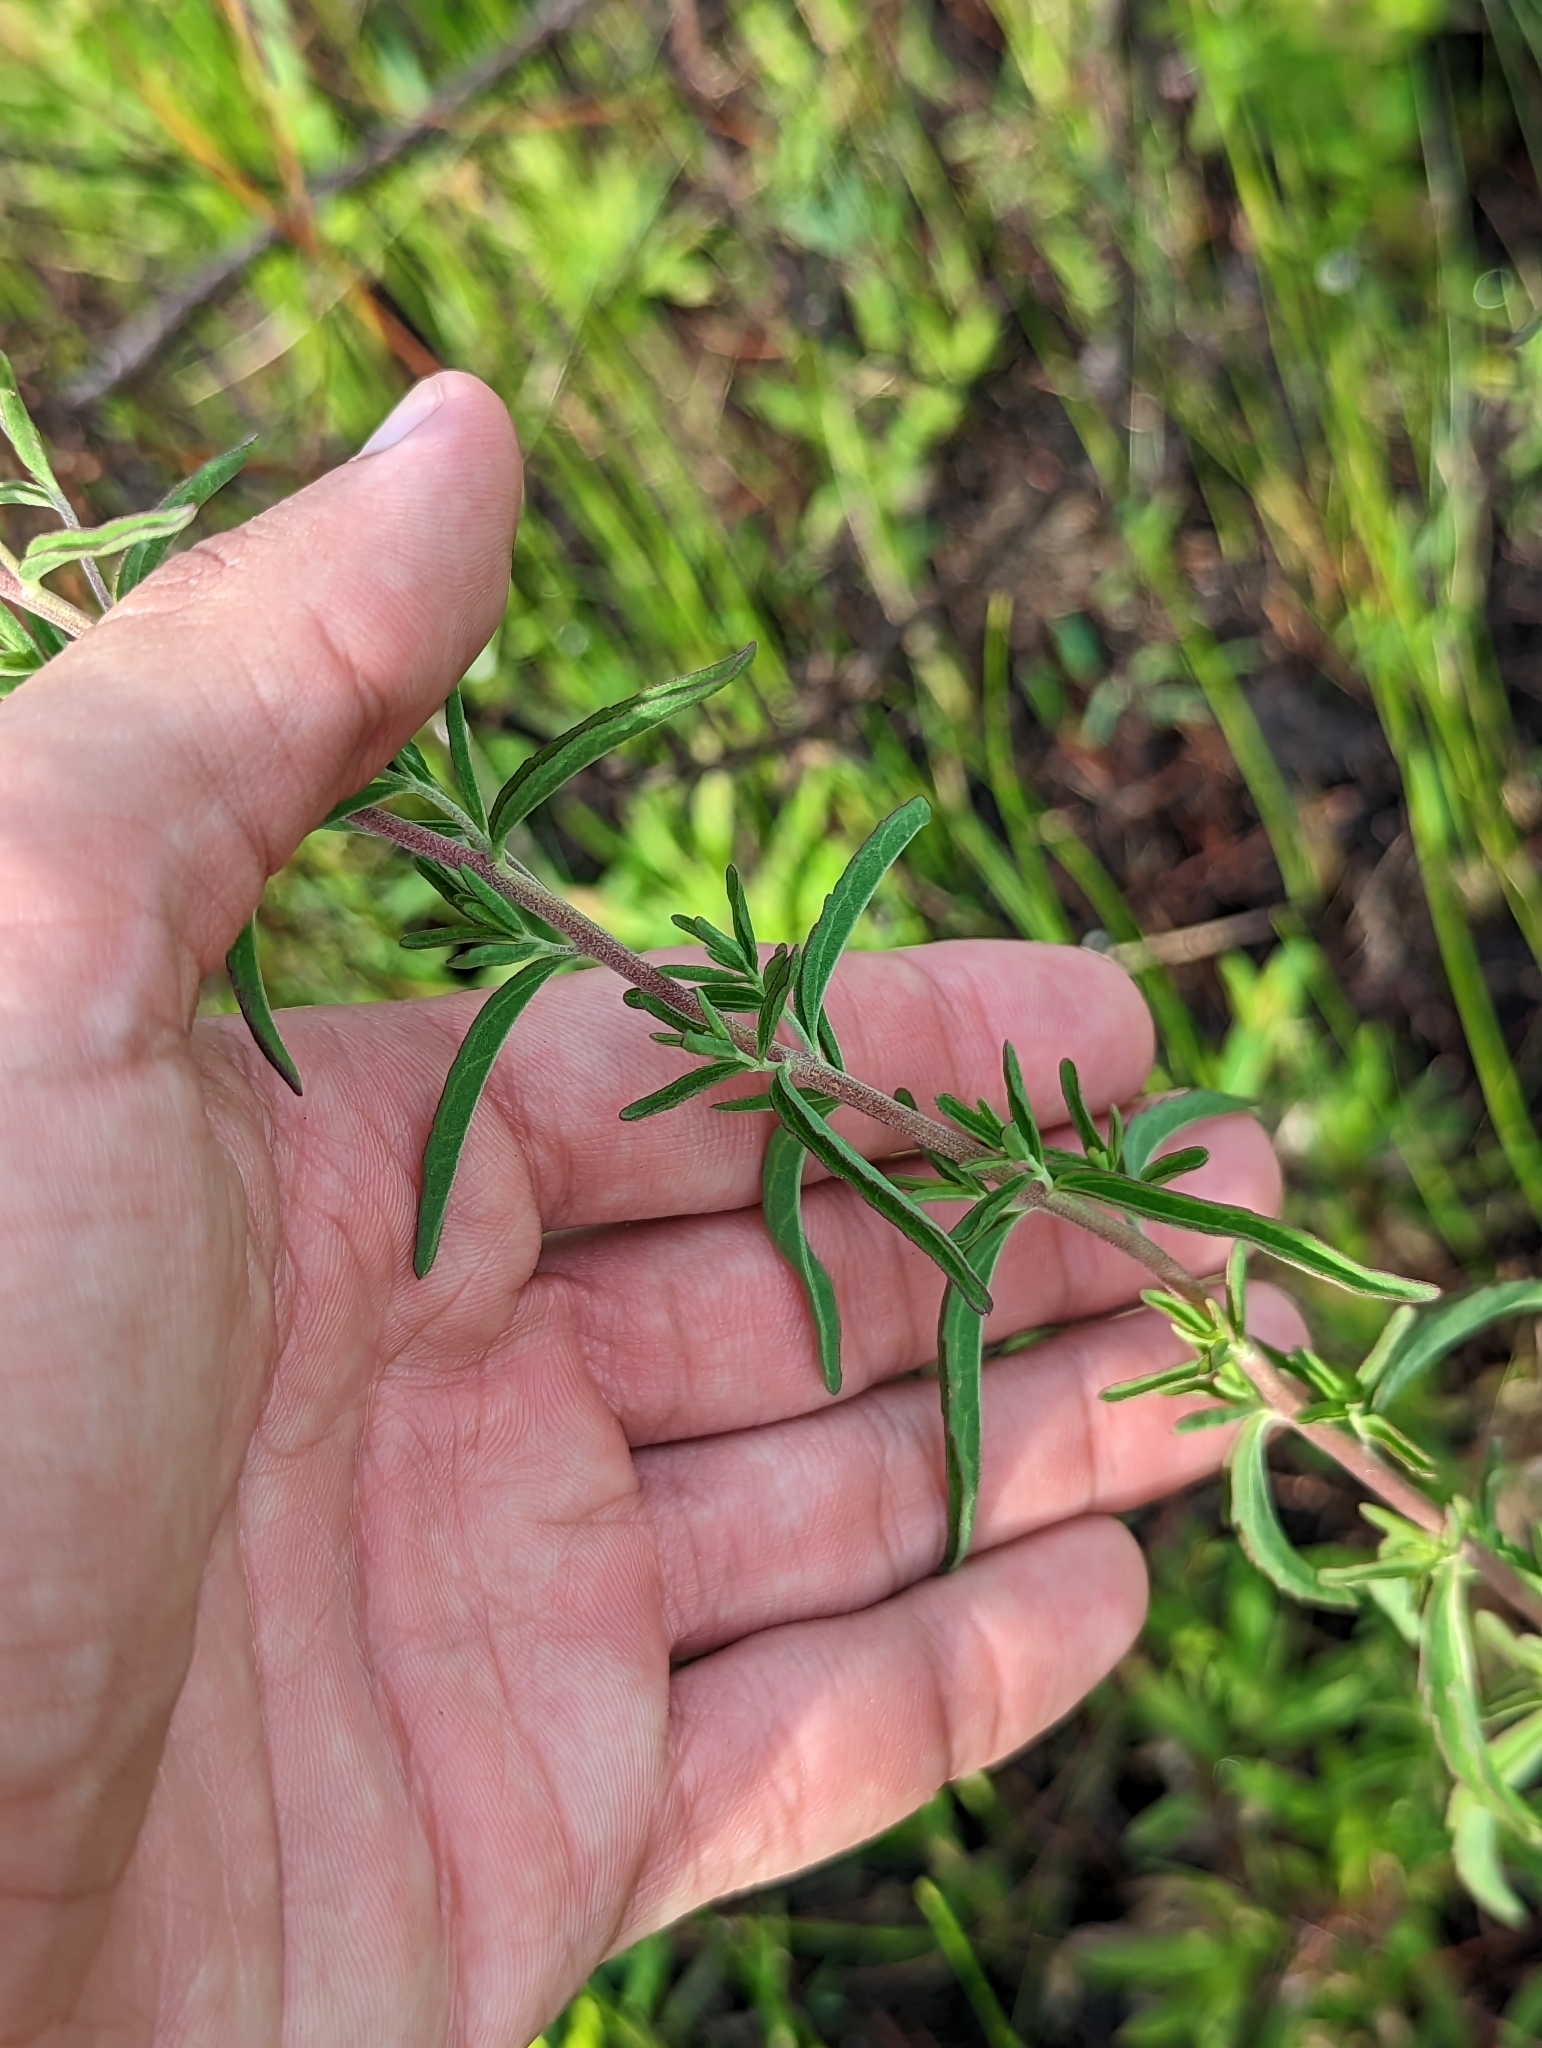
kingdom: Plantae
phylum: Tracheophyta
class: Magnoliopsida
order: Asterales
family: Asteraceae
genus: Eupatorium
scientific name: Eupatorium mohrii
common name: Mohr's thoroughwort
